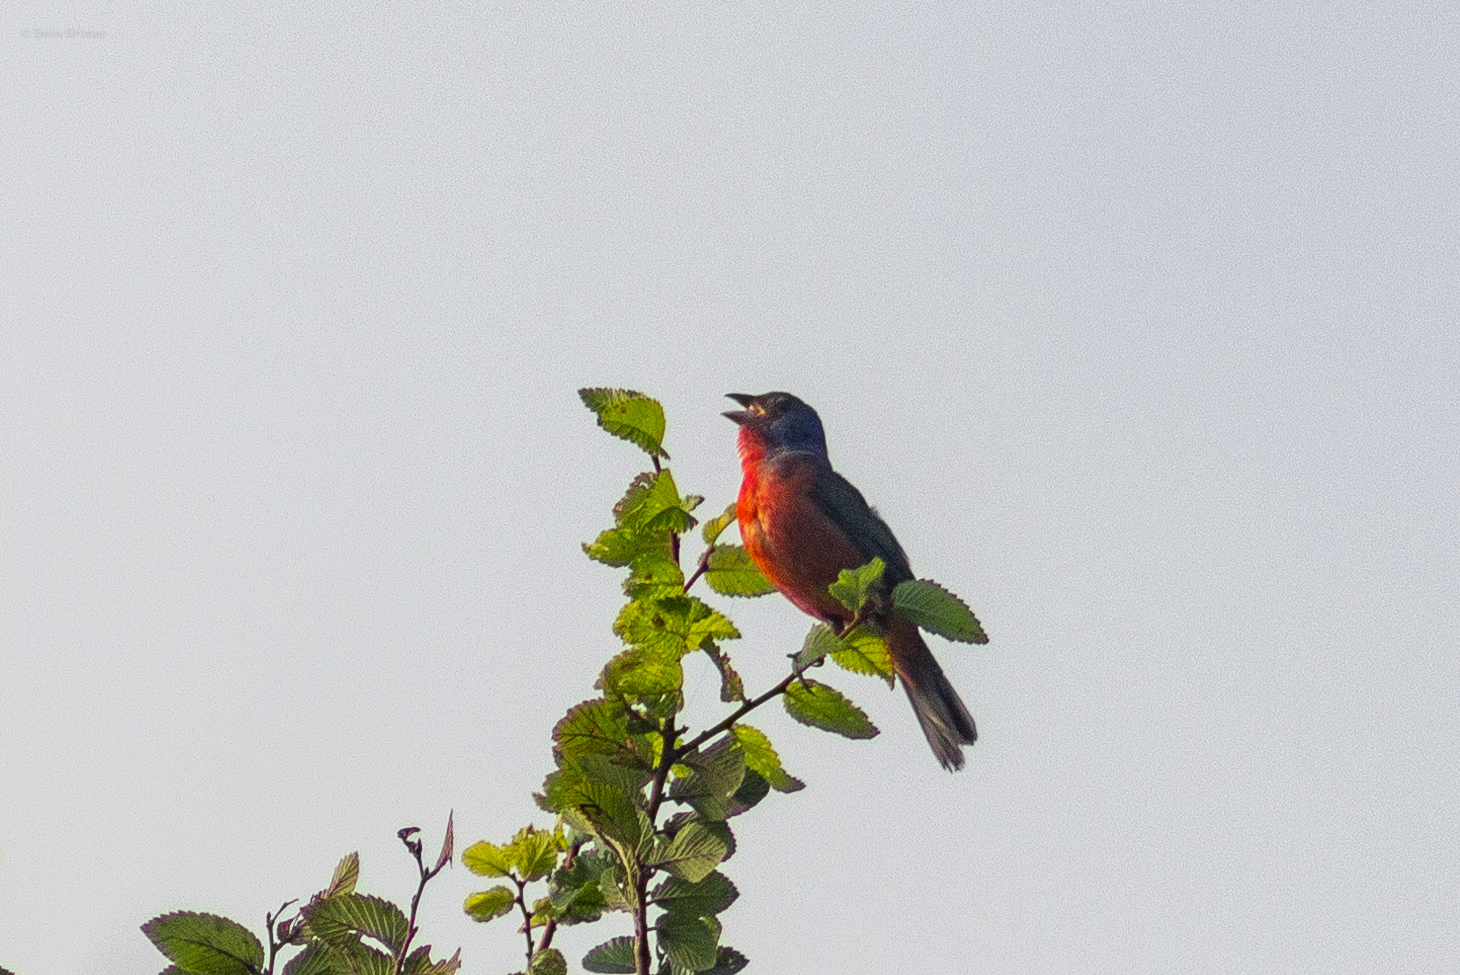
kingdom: Animalia
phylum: Chordata
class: Aves
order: Passeriformes
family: Cardinalidae
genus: Passerina
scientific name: Passerina ciris
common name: Painted bunting
